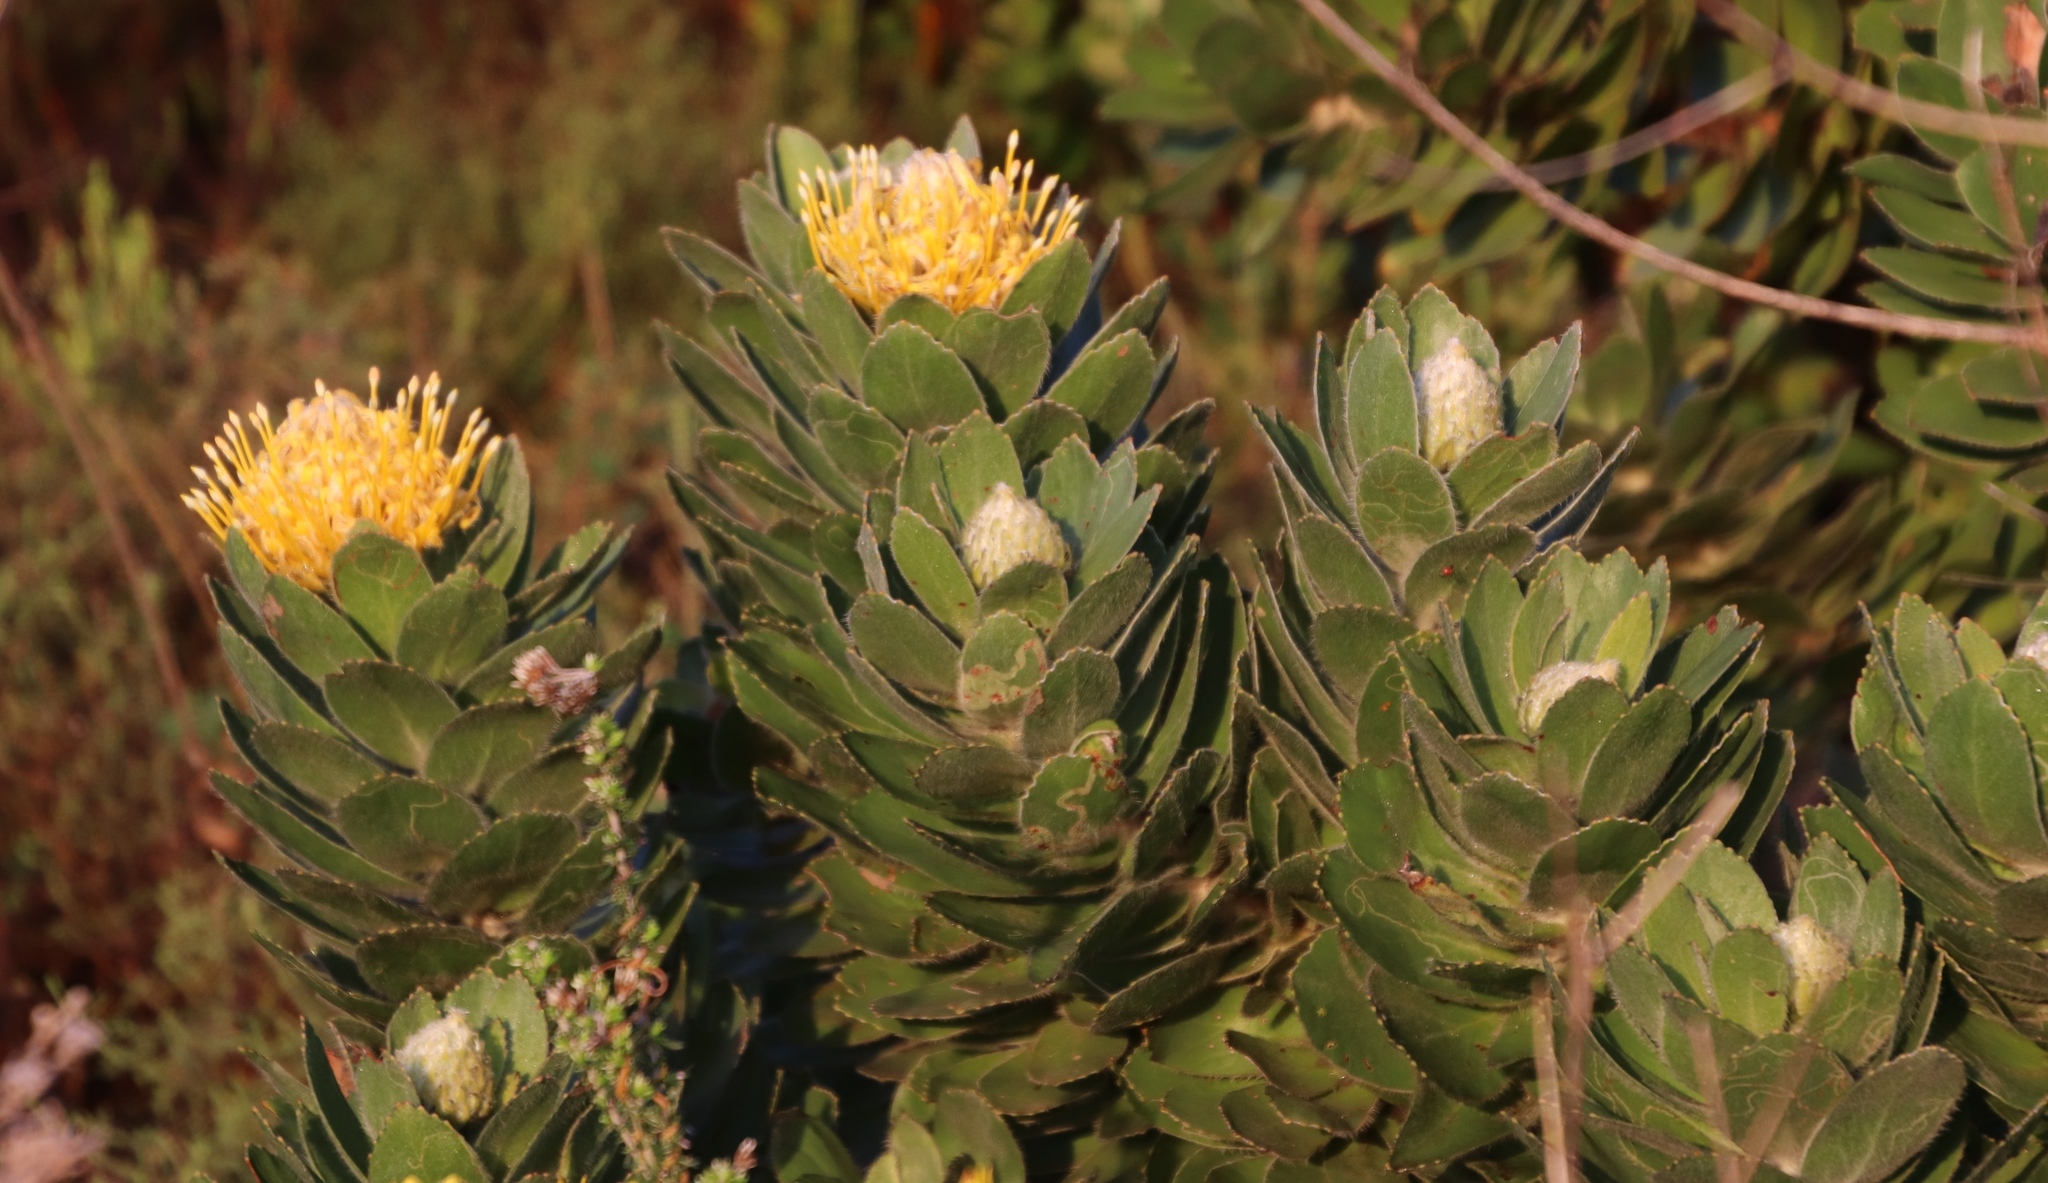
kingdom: Plantae
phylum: Tracheophyta
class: Magnoliopsida
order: Proteales
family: Proteaceae
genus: Leucospermum
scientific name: Leucospermum conocarpodendron
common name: Tree pincushion
